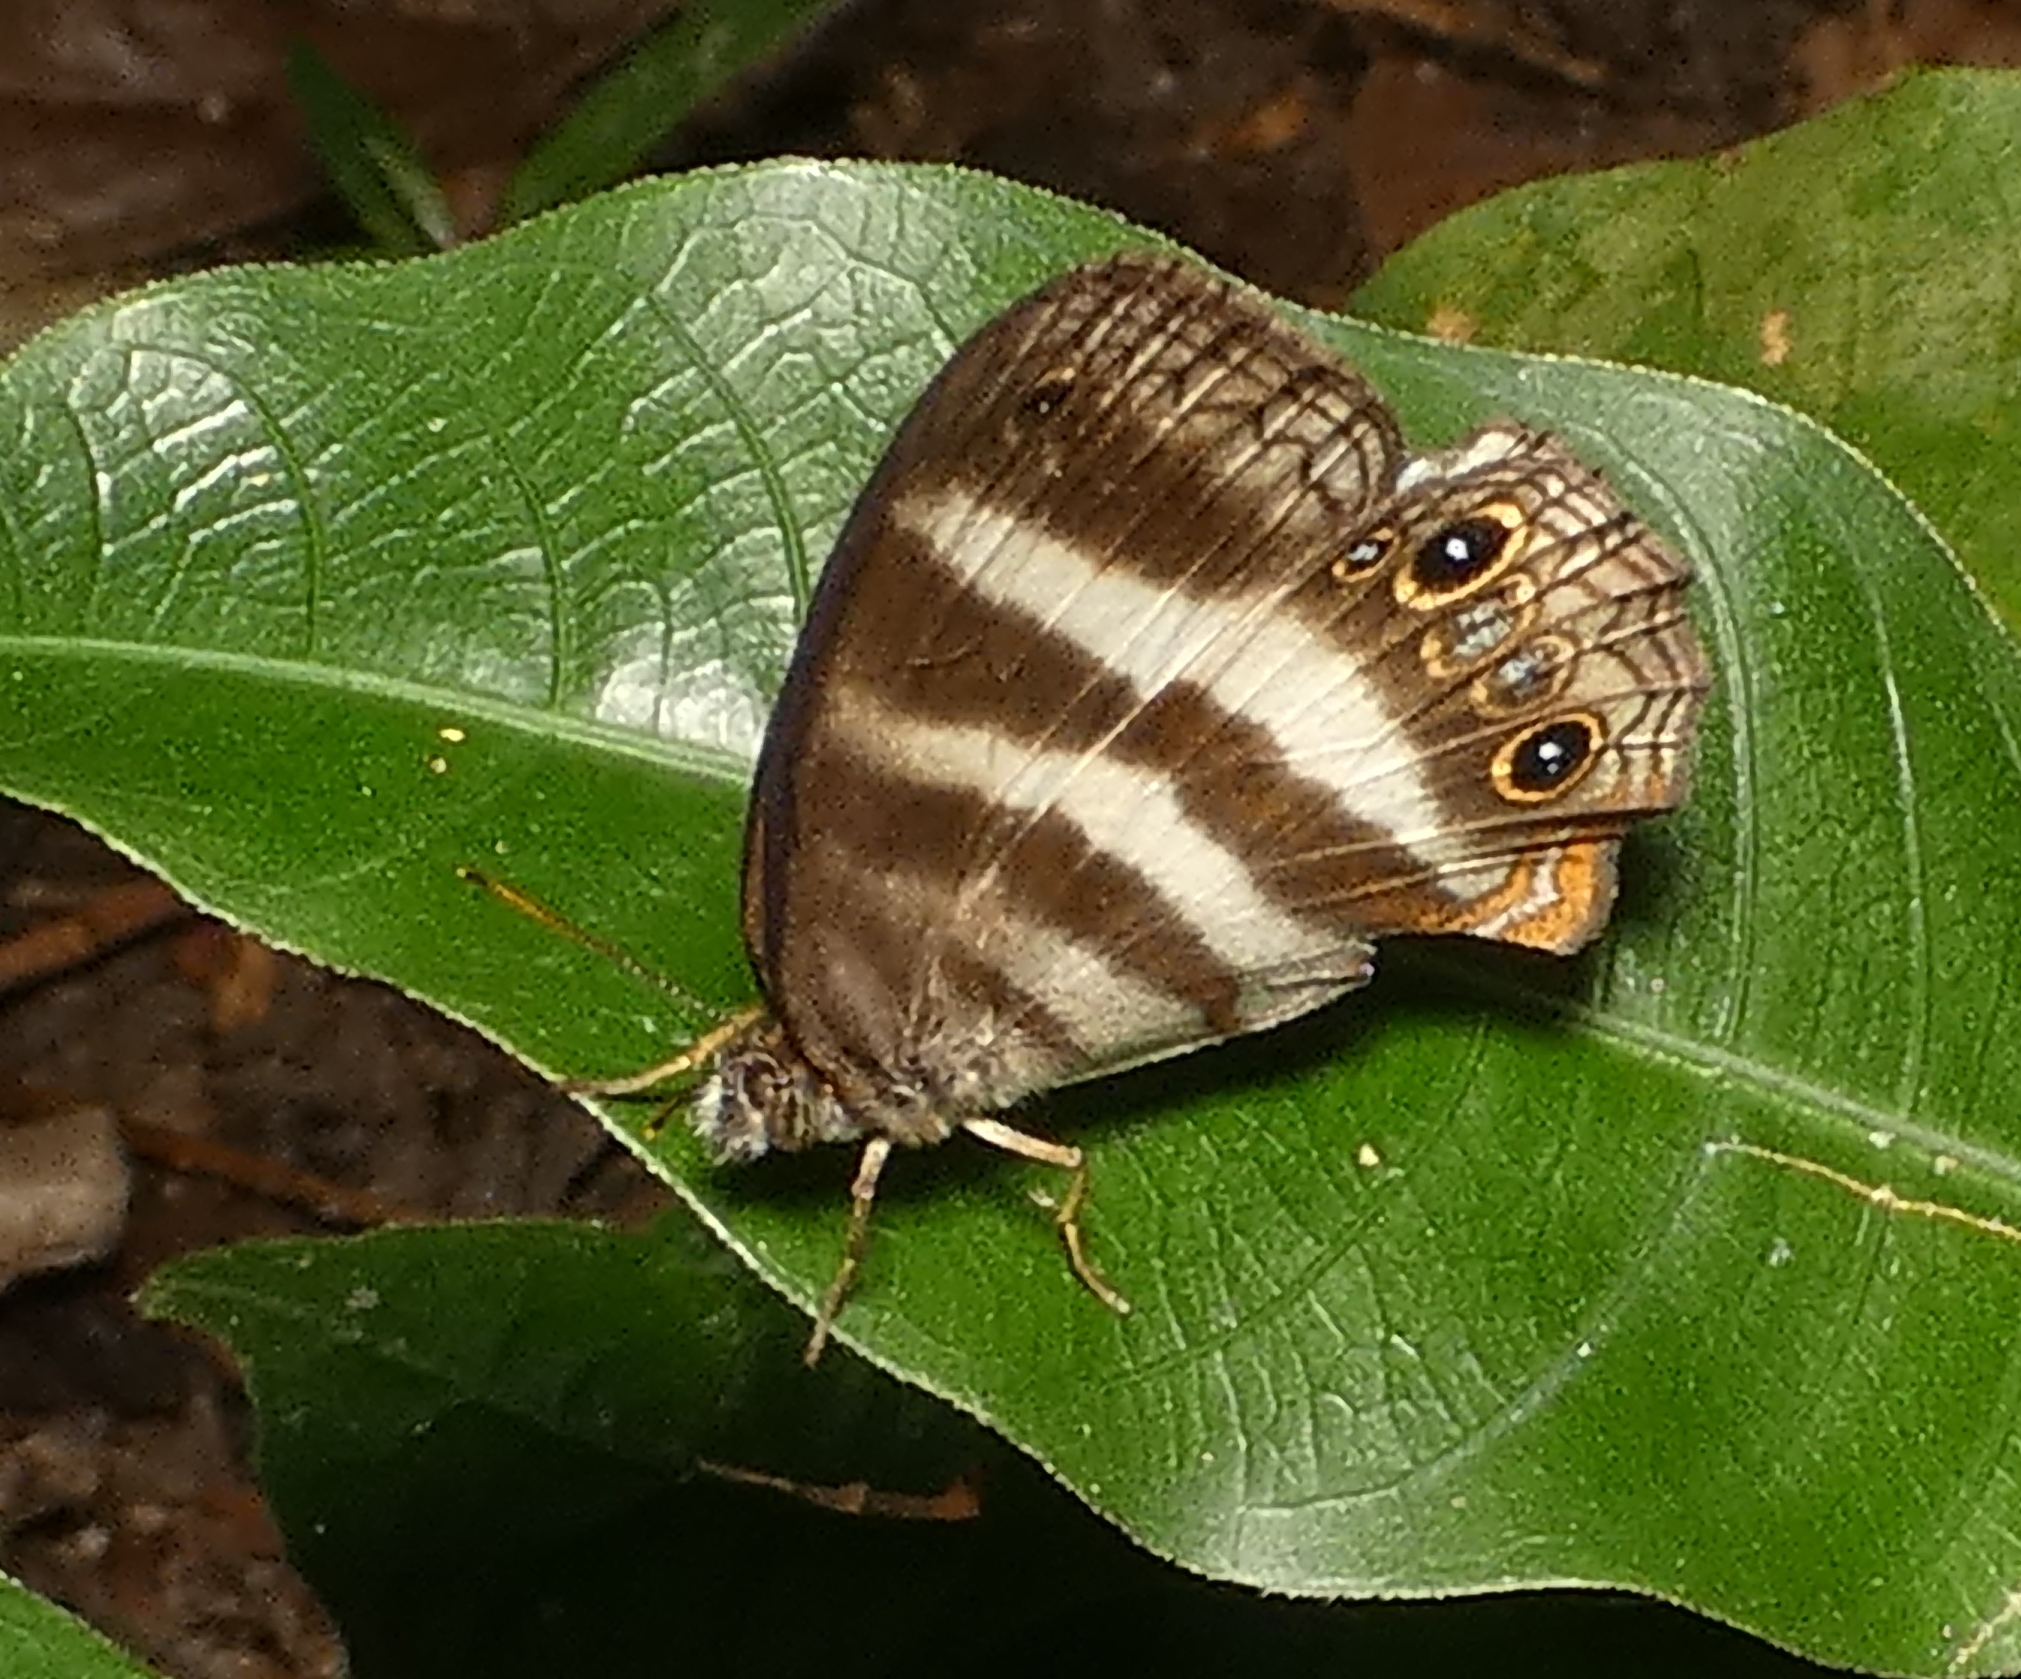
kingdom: Animalia
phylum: Arthropoda
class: Insecta
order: Lepidoptera
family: Nymphalidae
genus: Pareuptychia
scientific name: Pareuptychia hesione
